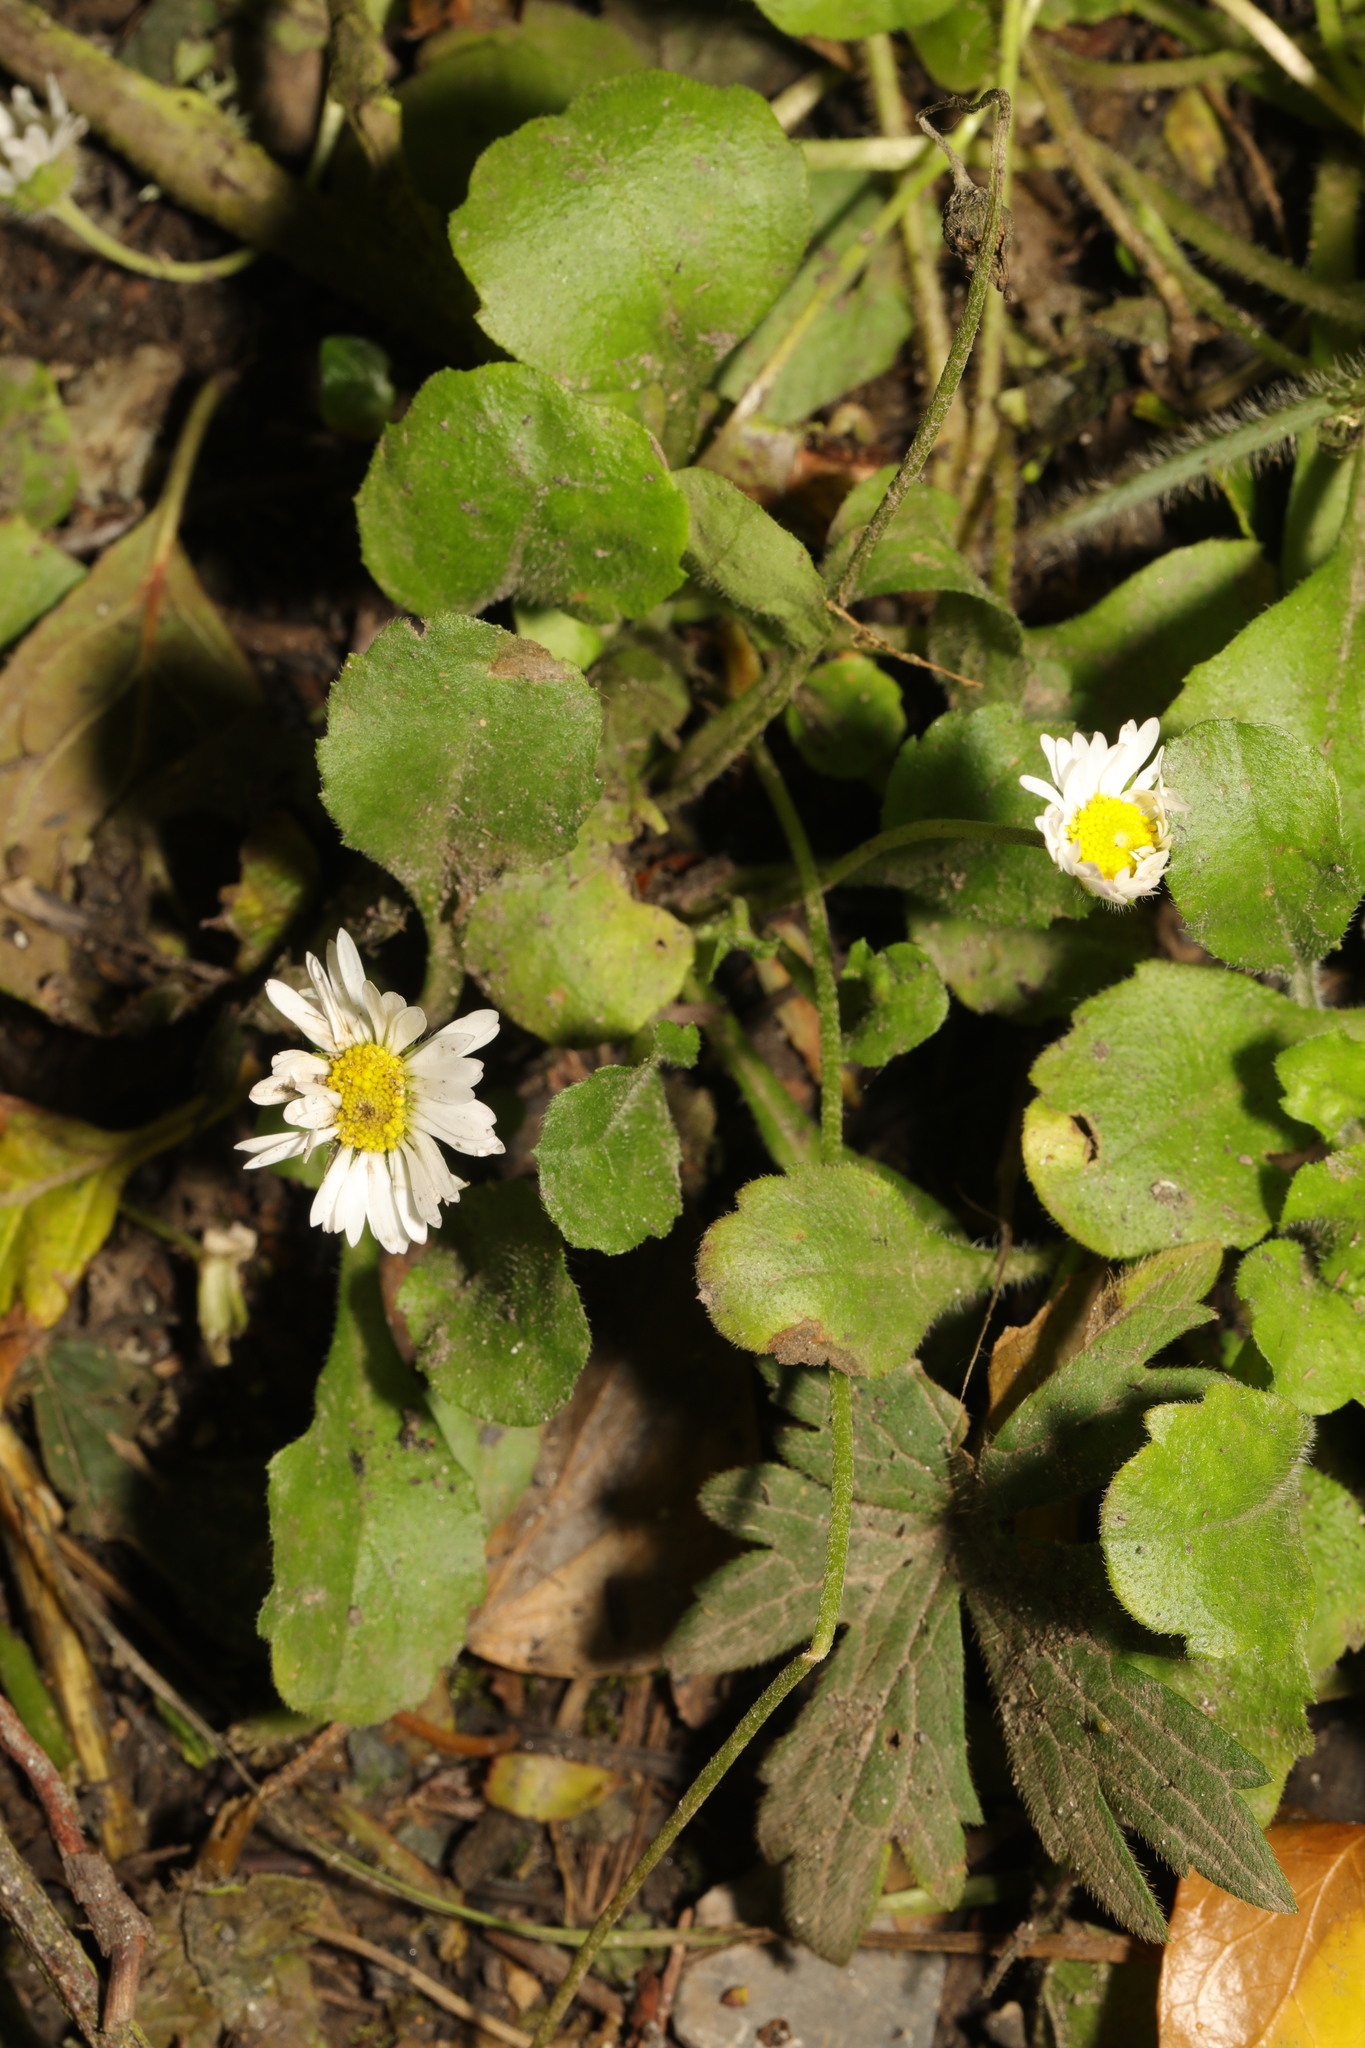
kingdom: Plantae
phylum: Tracheophyta
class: Magnoliopsida
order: Asterales
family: Asteraceae
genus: Bellis
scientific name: Bellis perennis
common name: Lawndaisy
